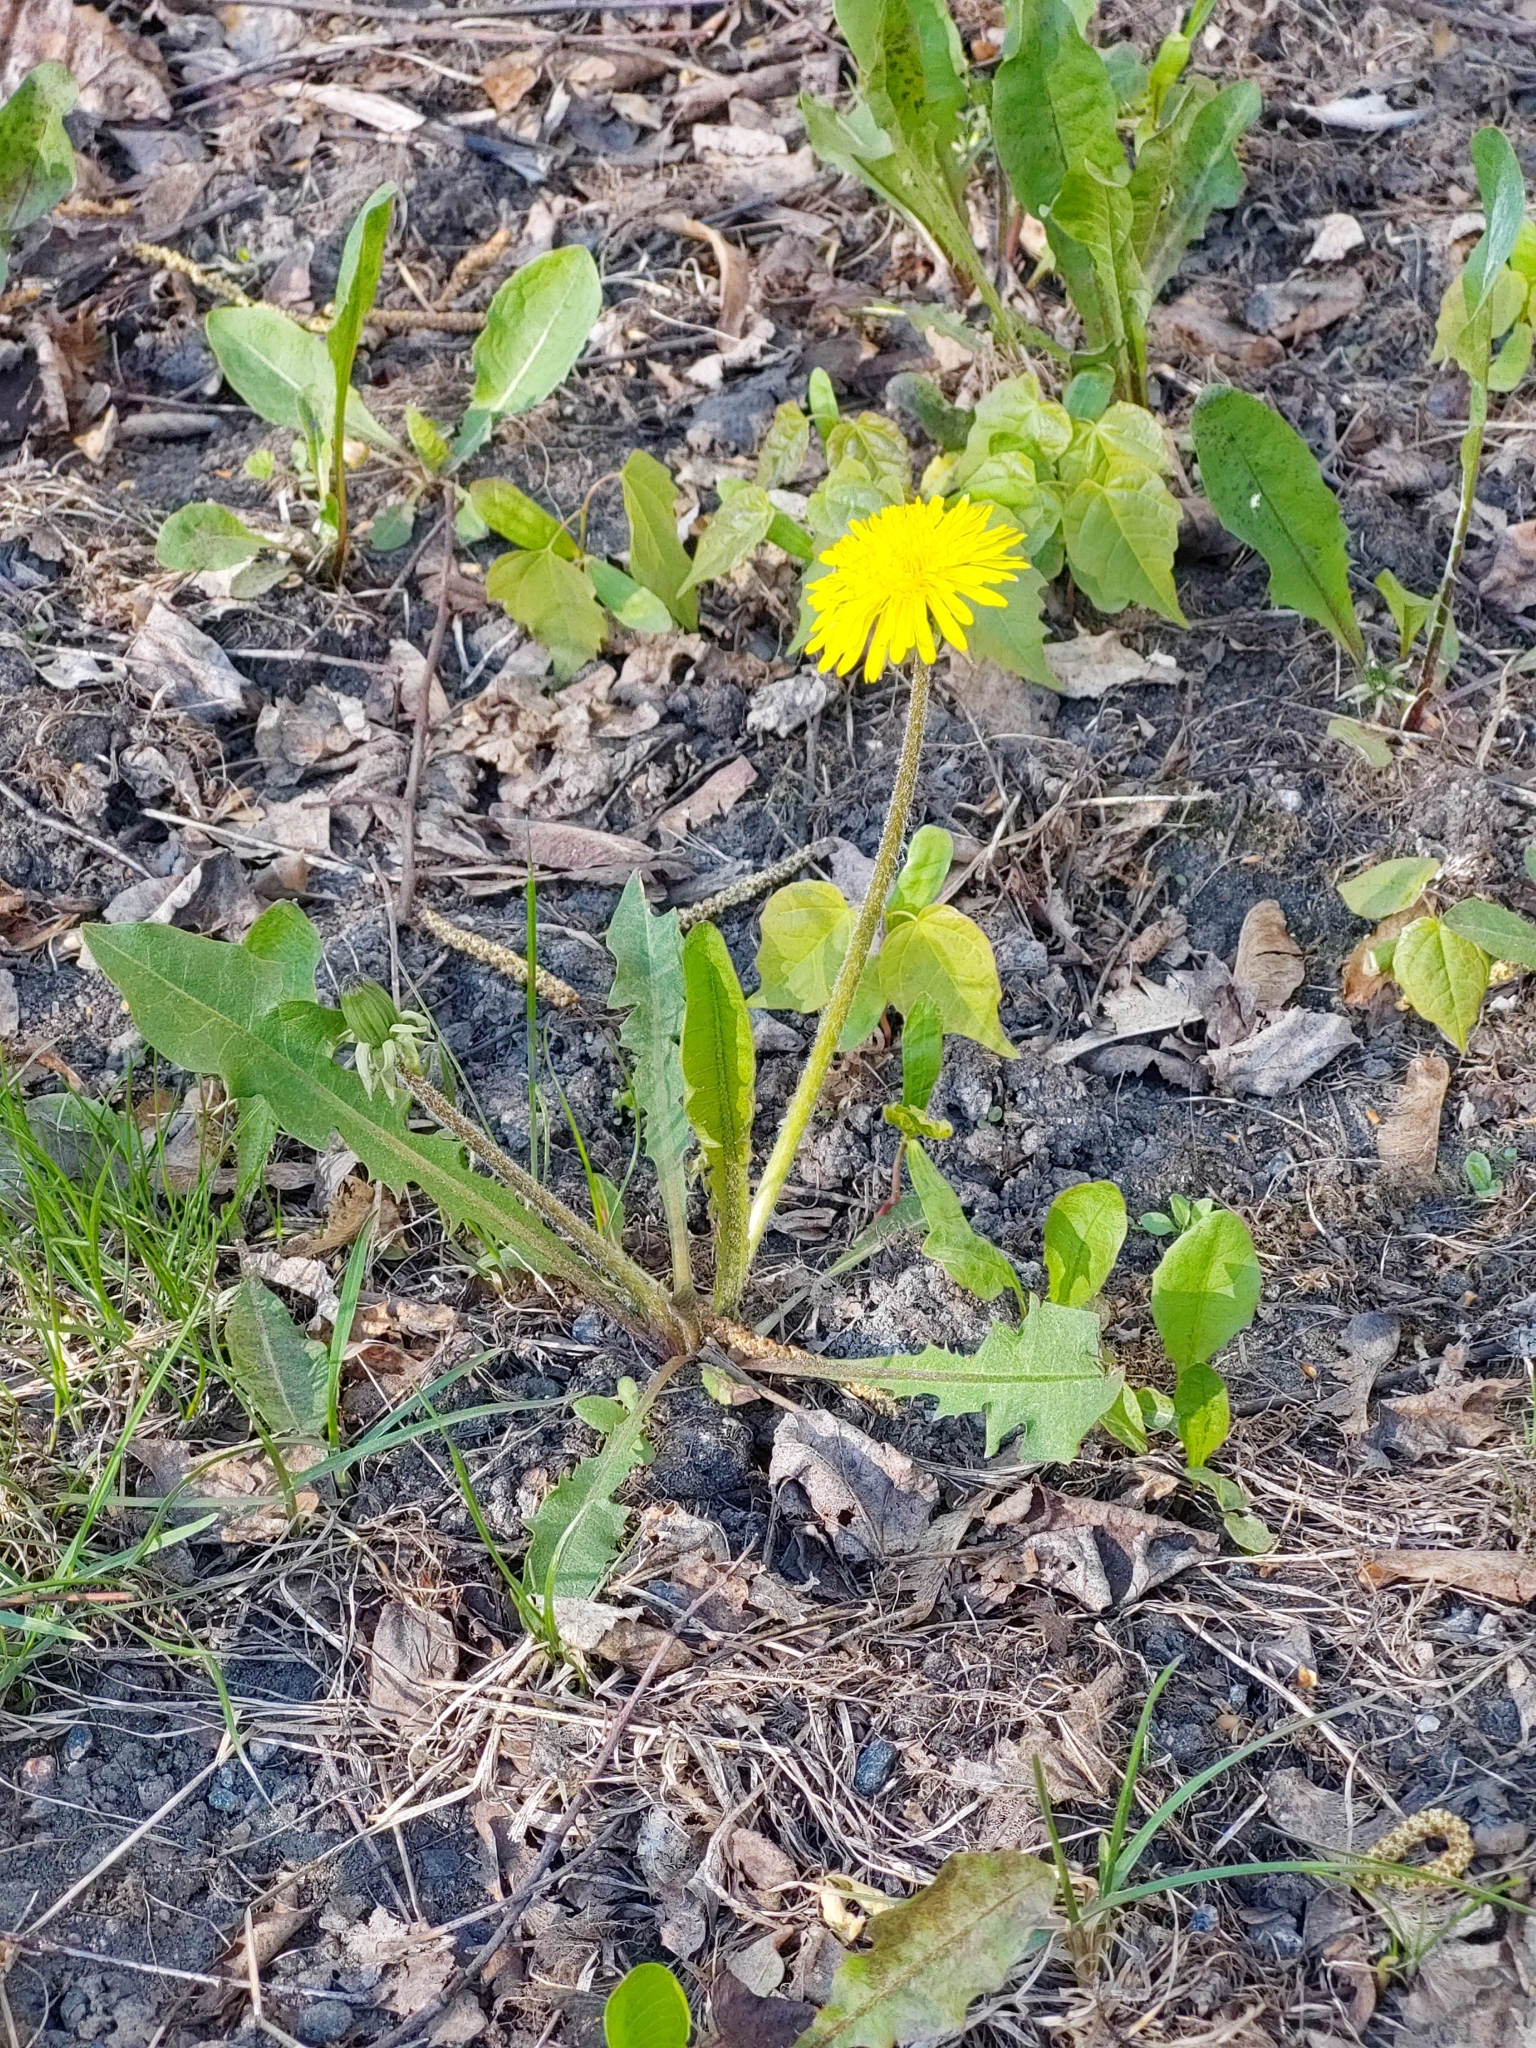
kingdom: Plantae
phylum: Tracheophyta
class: Magnoliopsida
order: Asterales
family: Asteraceae
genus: Taraxacum
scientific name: Taraxacum officinale
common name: Common dandelion
